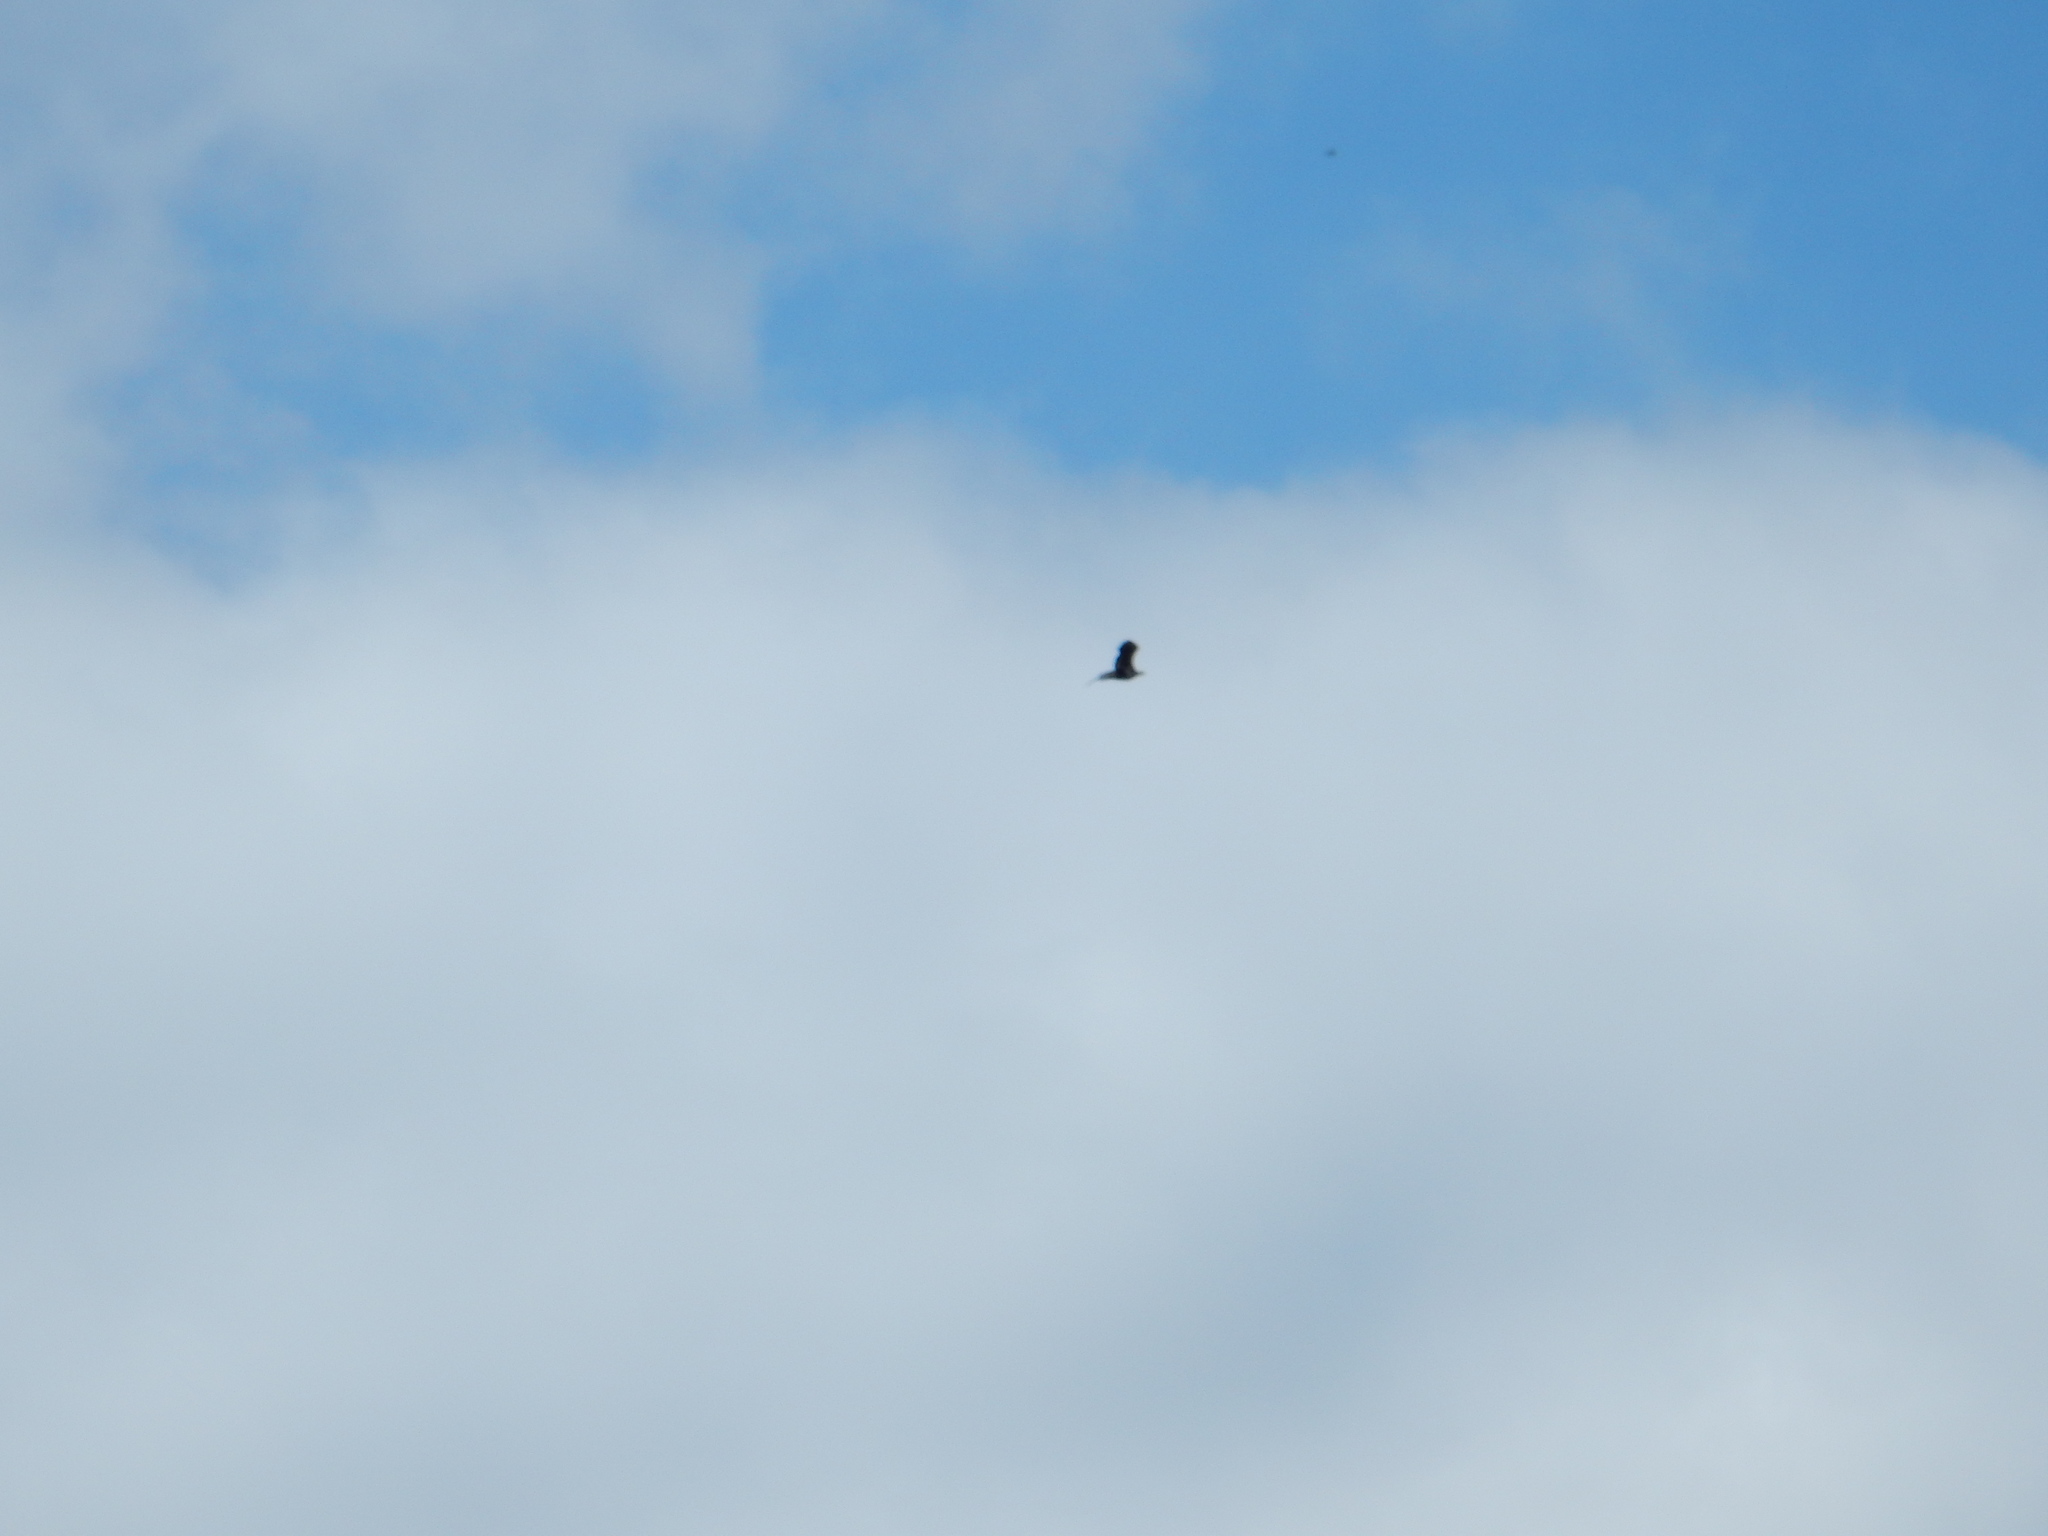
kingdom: Animalia
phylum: Chordata
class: Aves
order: Accipitriformes
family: Accipitridae
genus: Haliaeetus
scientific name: Haliaeetus leucocephalus
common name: Bald eagle
